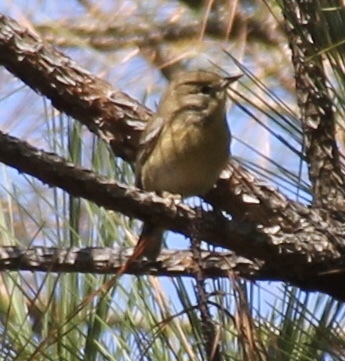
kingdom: Animalia
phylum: Chordata
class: Aves
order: Passeriformes
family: Parulidae
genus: Setophaga
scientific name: Setophaga pinus
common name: Pine warbler
